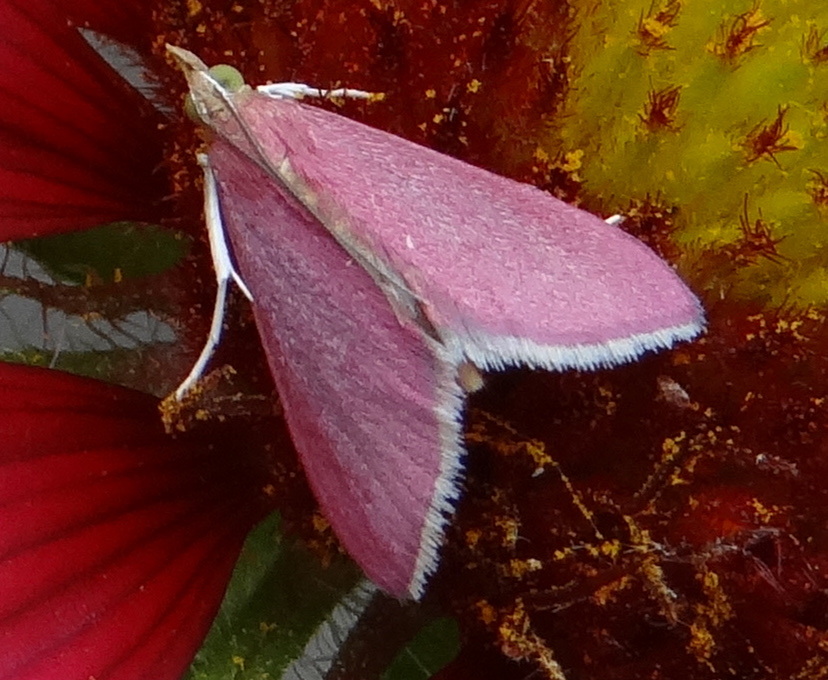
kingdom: Animalia
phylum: Arthropoda
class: Insecta
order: Lepidoptera
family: Crambidae
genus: Pyrausta
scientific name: Pyrausta inornatalis
